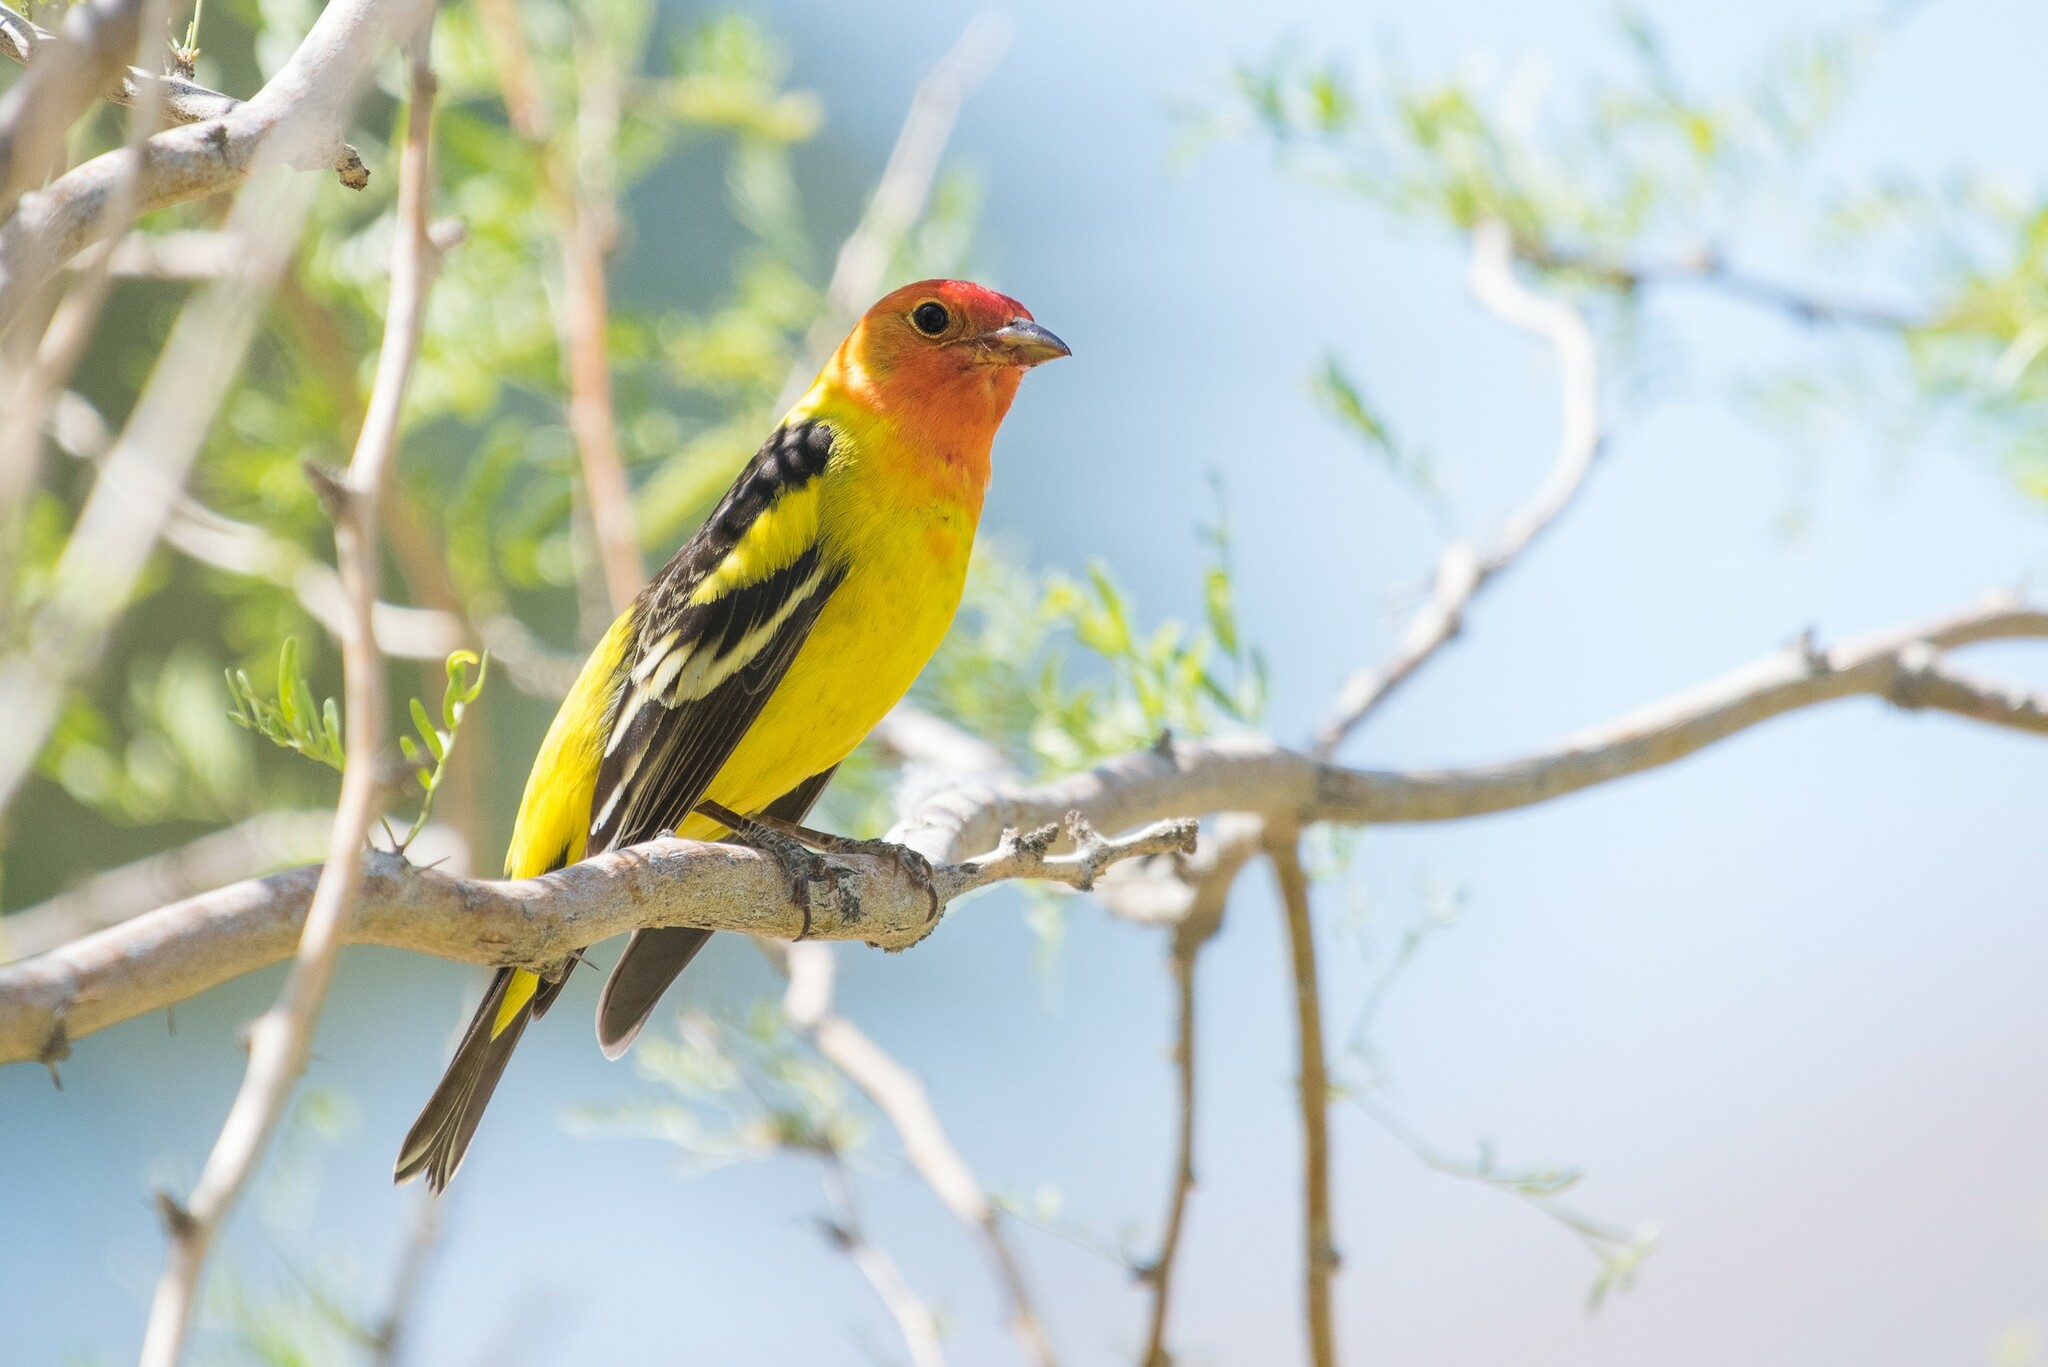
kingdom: Animalia
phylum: Chordata
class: Aves
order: Passeriformes
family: Cardinalidae
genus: Piranga
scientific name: Piranga ludoviciana
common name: Western tanager
